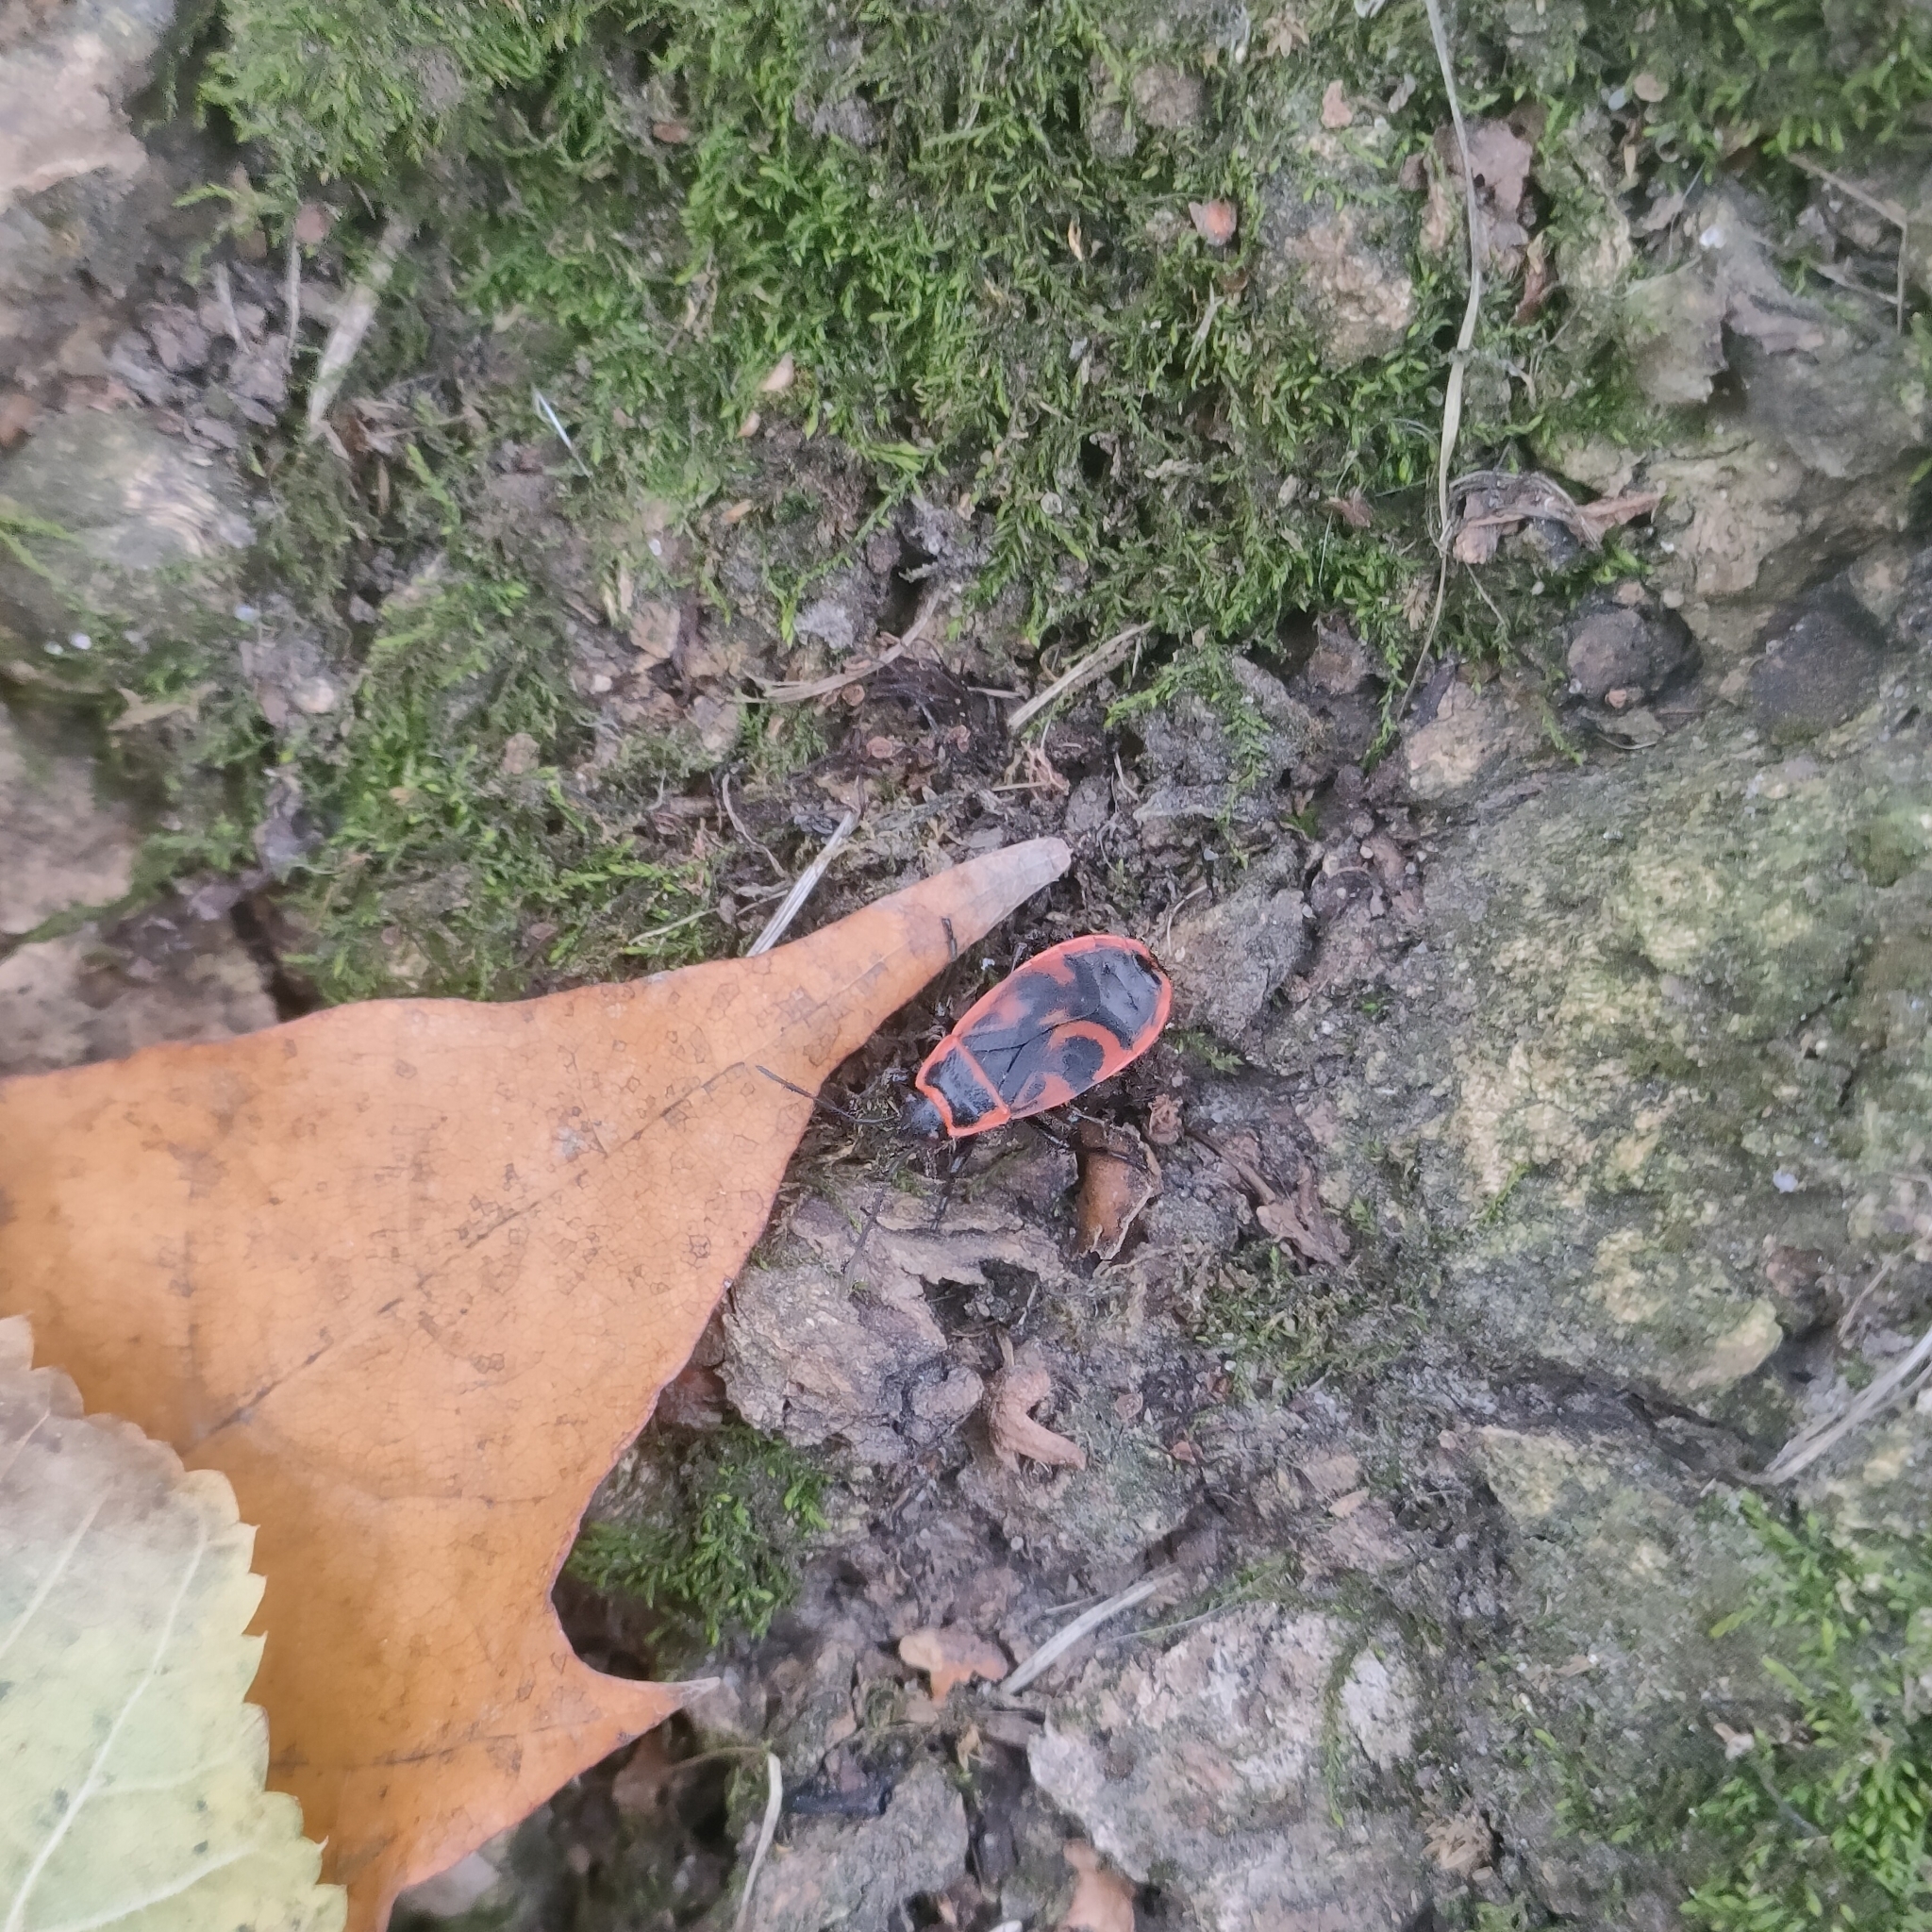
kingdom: Animalia
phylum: Arthropoda
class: Insecta
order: Hemiptera
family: Pyrrhocoridae
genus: Pyrrhocoris
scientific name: Pyrrhocoris apterus
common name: Firebug
